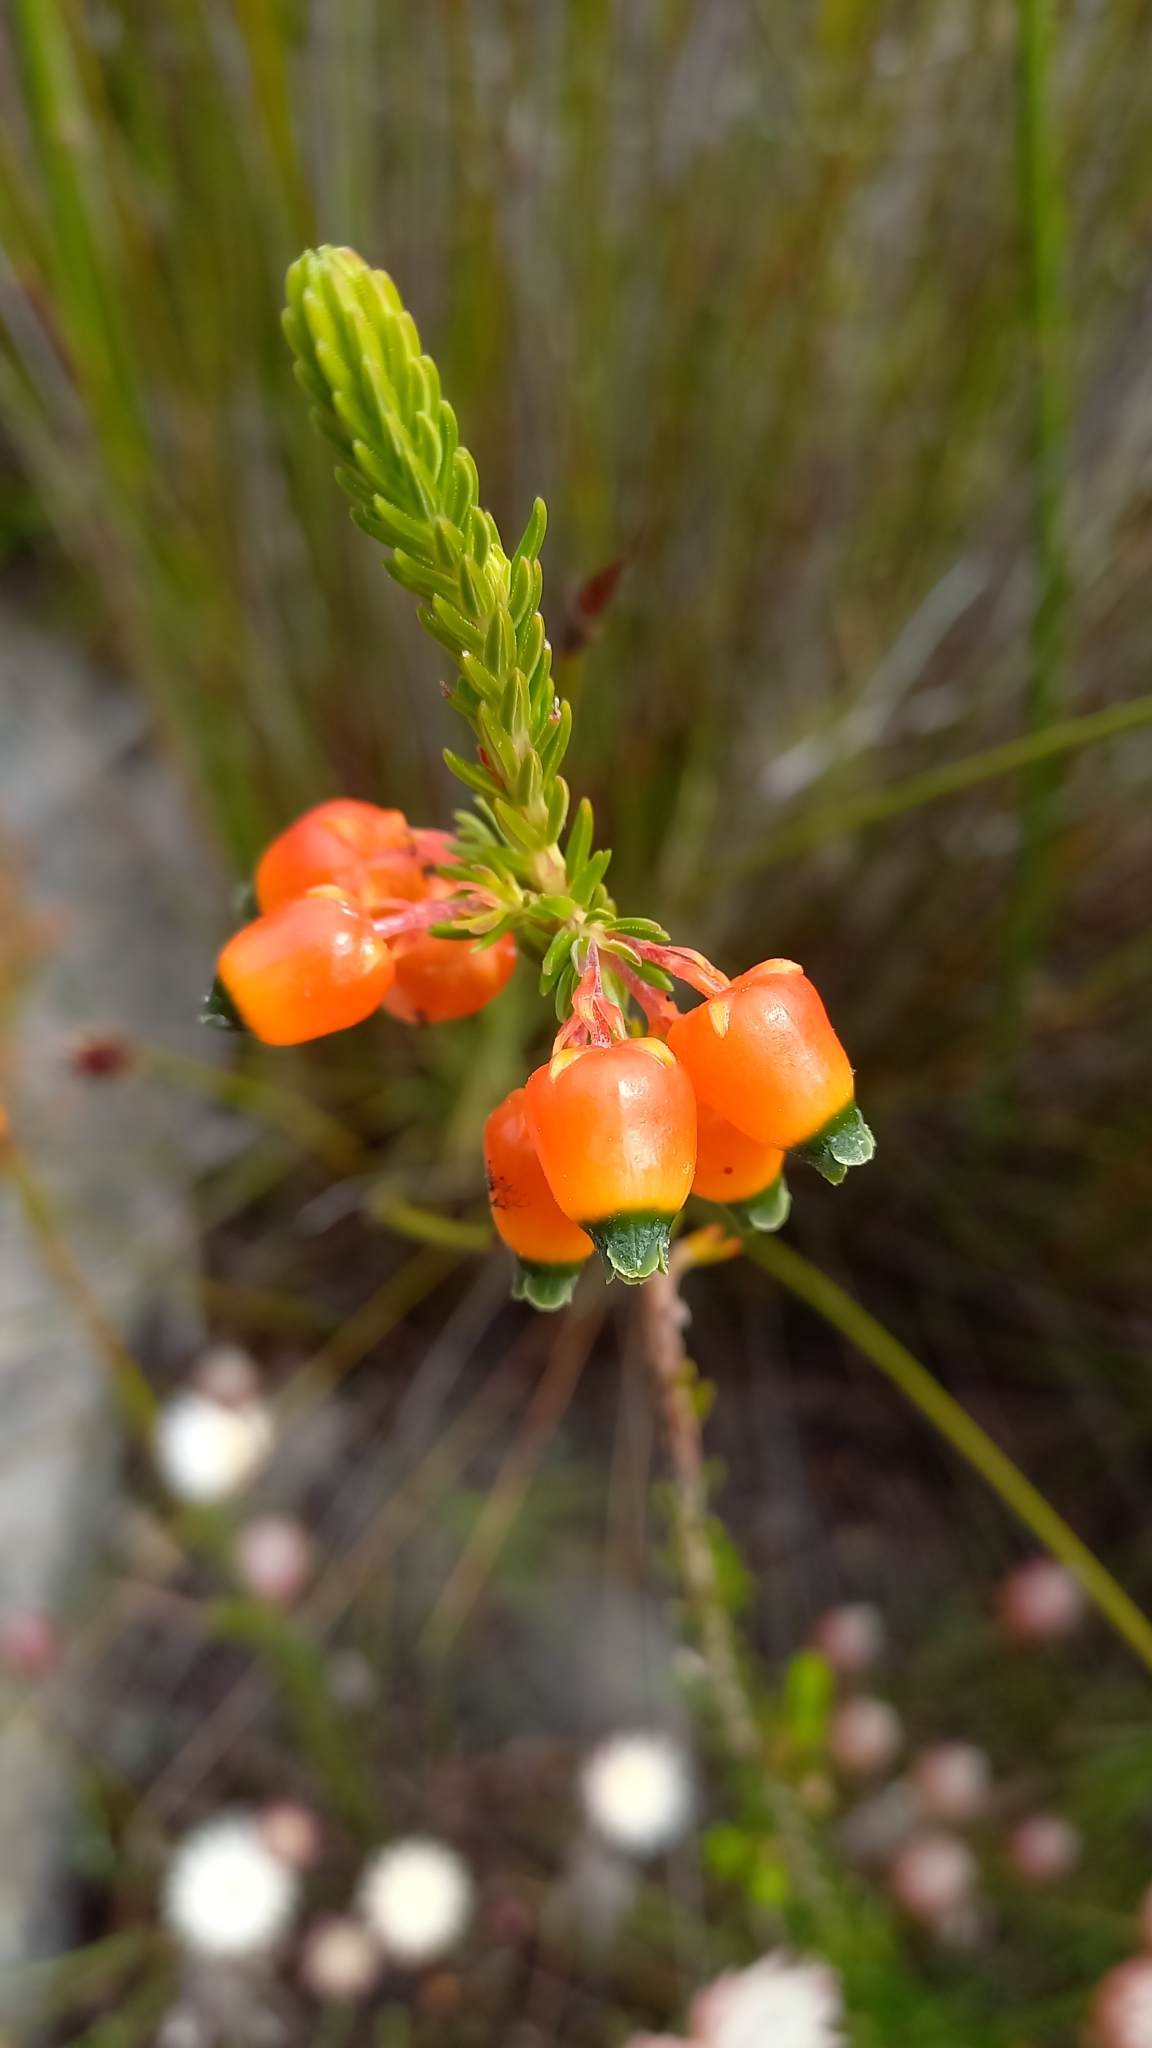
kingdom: Plantae
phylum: Tracheophyta
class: Magnoliopsida
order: Ericales
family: Ericaceae
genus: Erica
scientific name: Erica blenna
